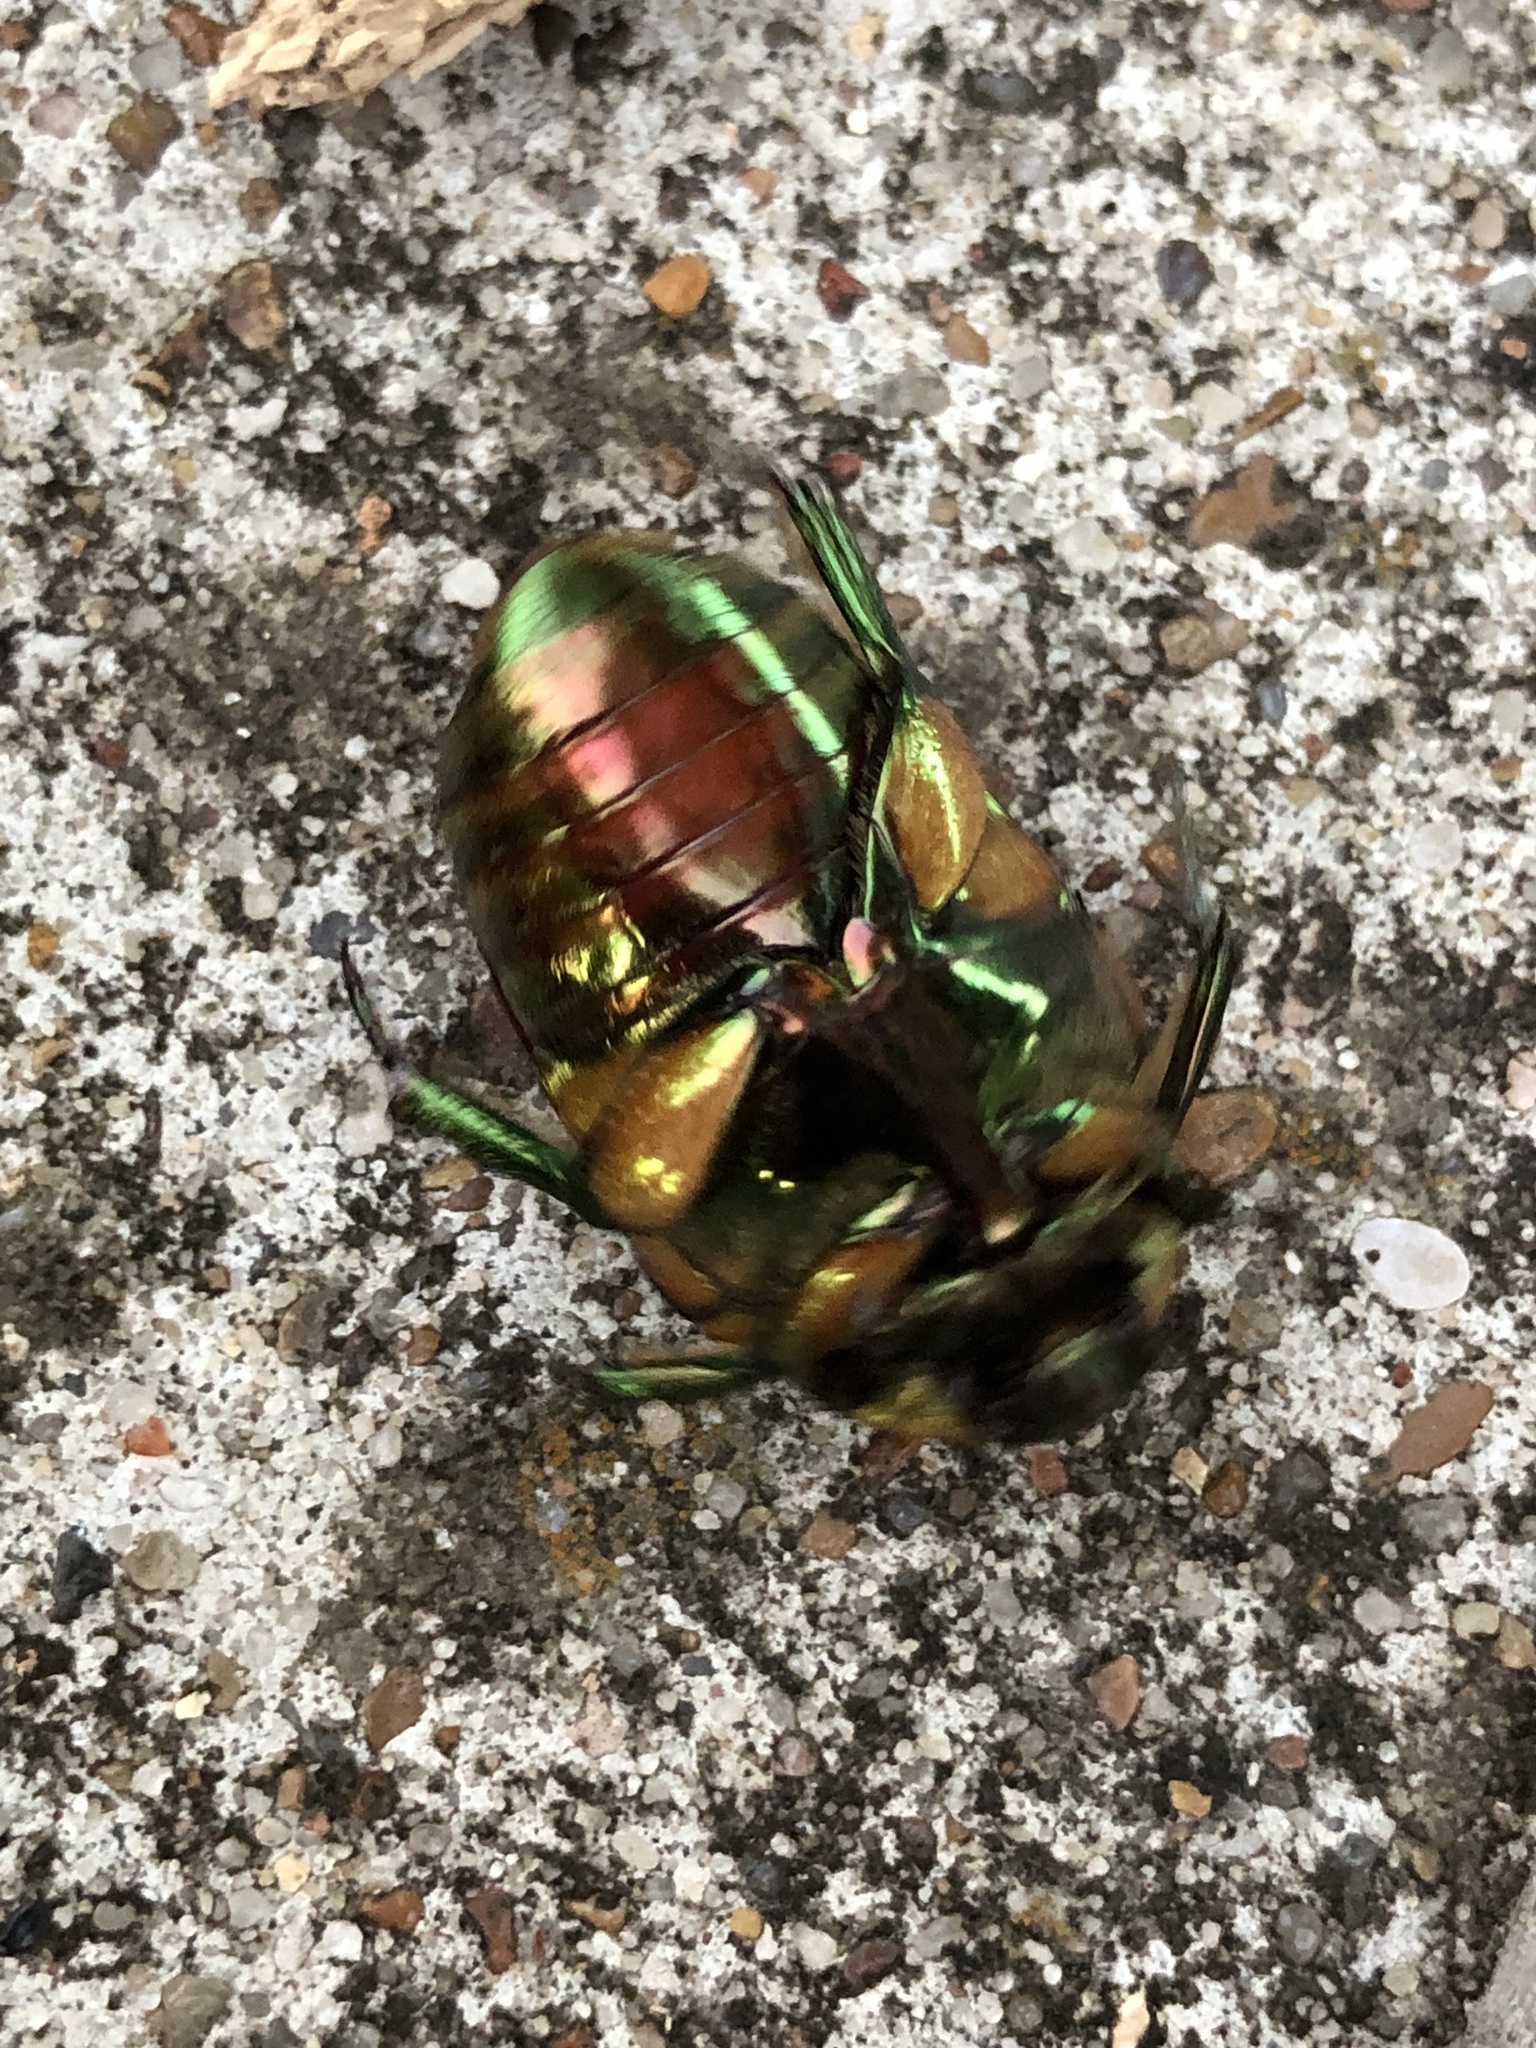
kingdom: Animalia
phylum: Arthropoda
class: Insecta
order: Coleoptera
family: Scarabaeidae
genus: Cotinis
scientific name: Cotinis nitida
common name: Common green june beetle
